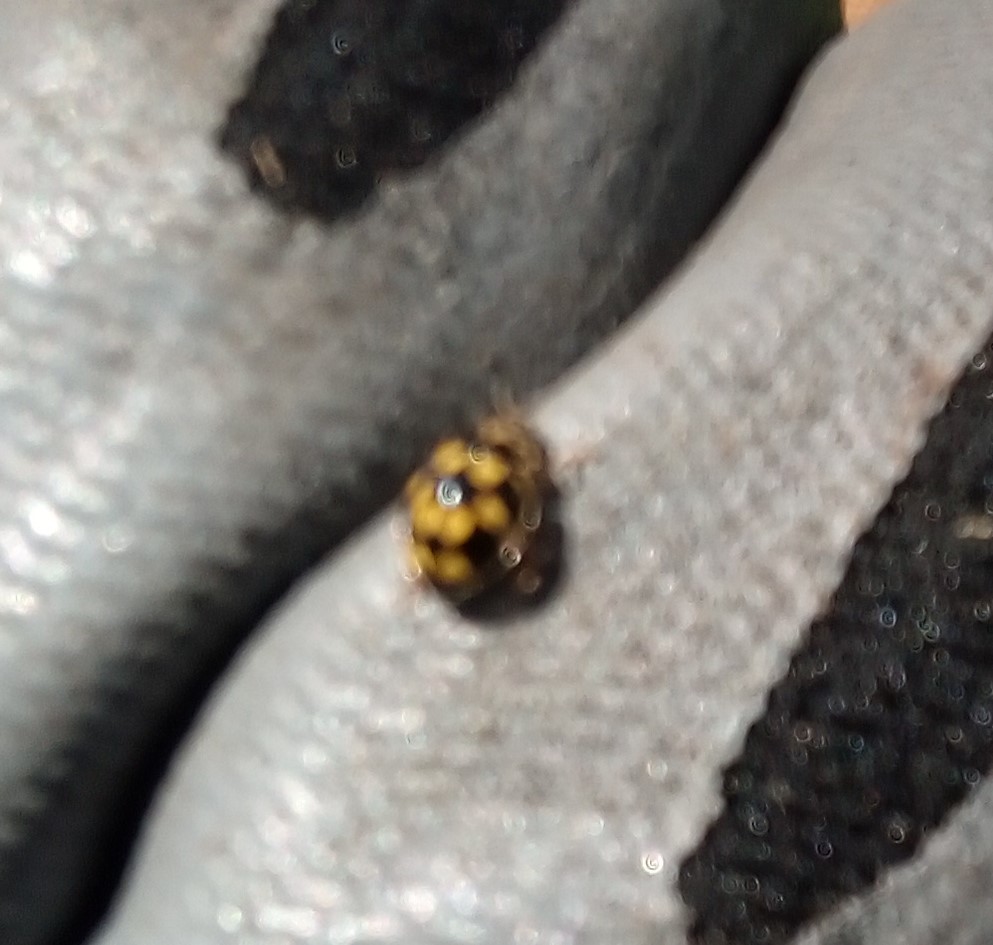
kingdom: Animalia
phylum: Arthropoda
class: Insecta
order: Coleoptera
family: Coccinellidae
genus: Propylaea
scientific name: Propylaea quatuordecimpunctata
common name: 14-spotted ladybird beetle
